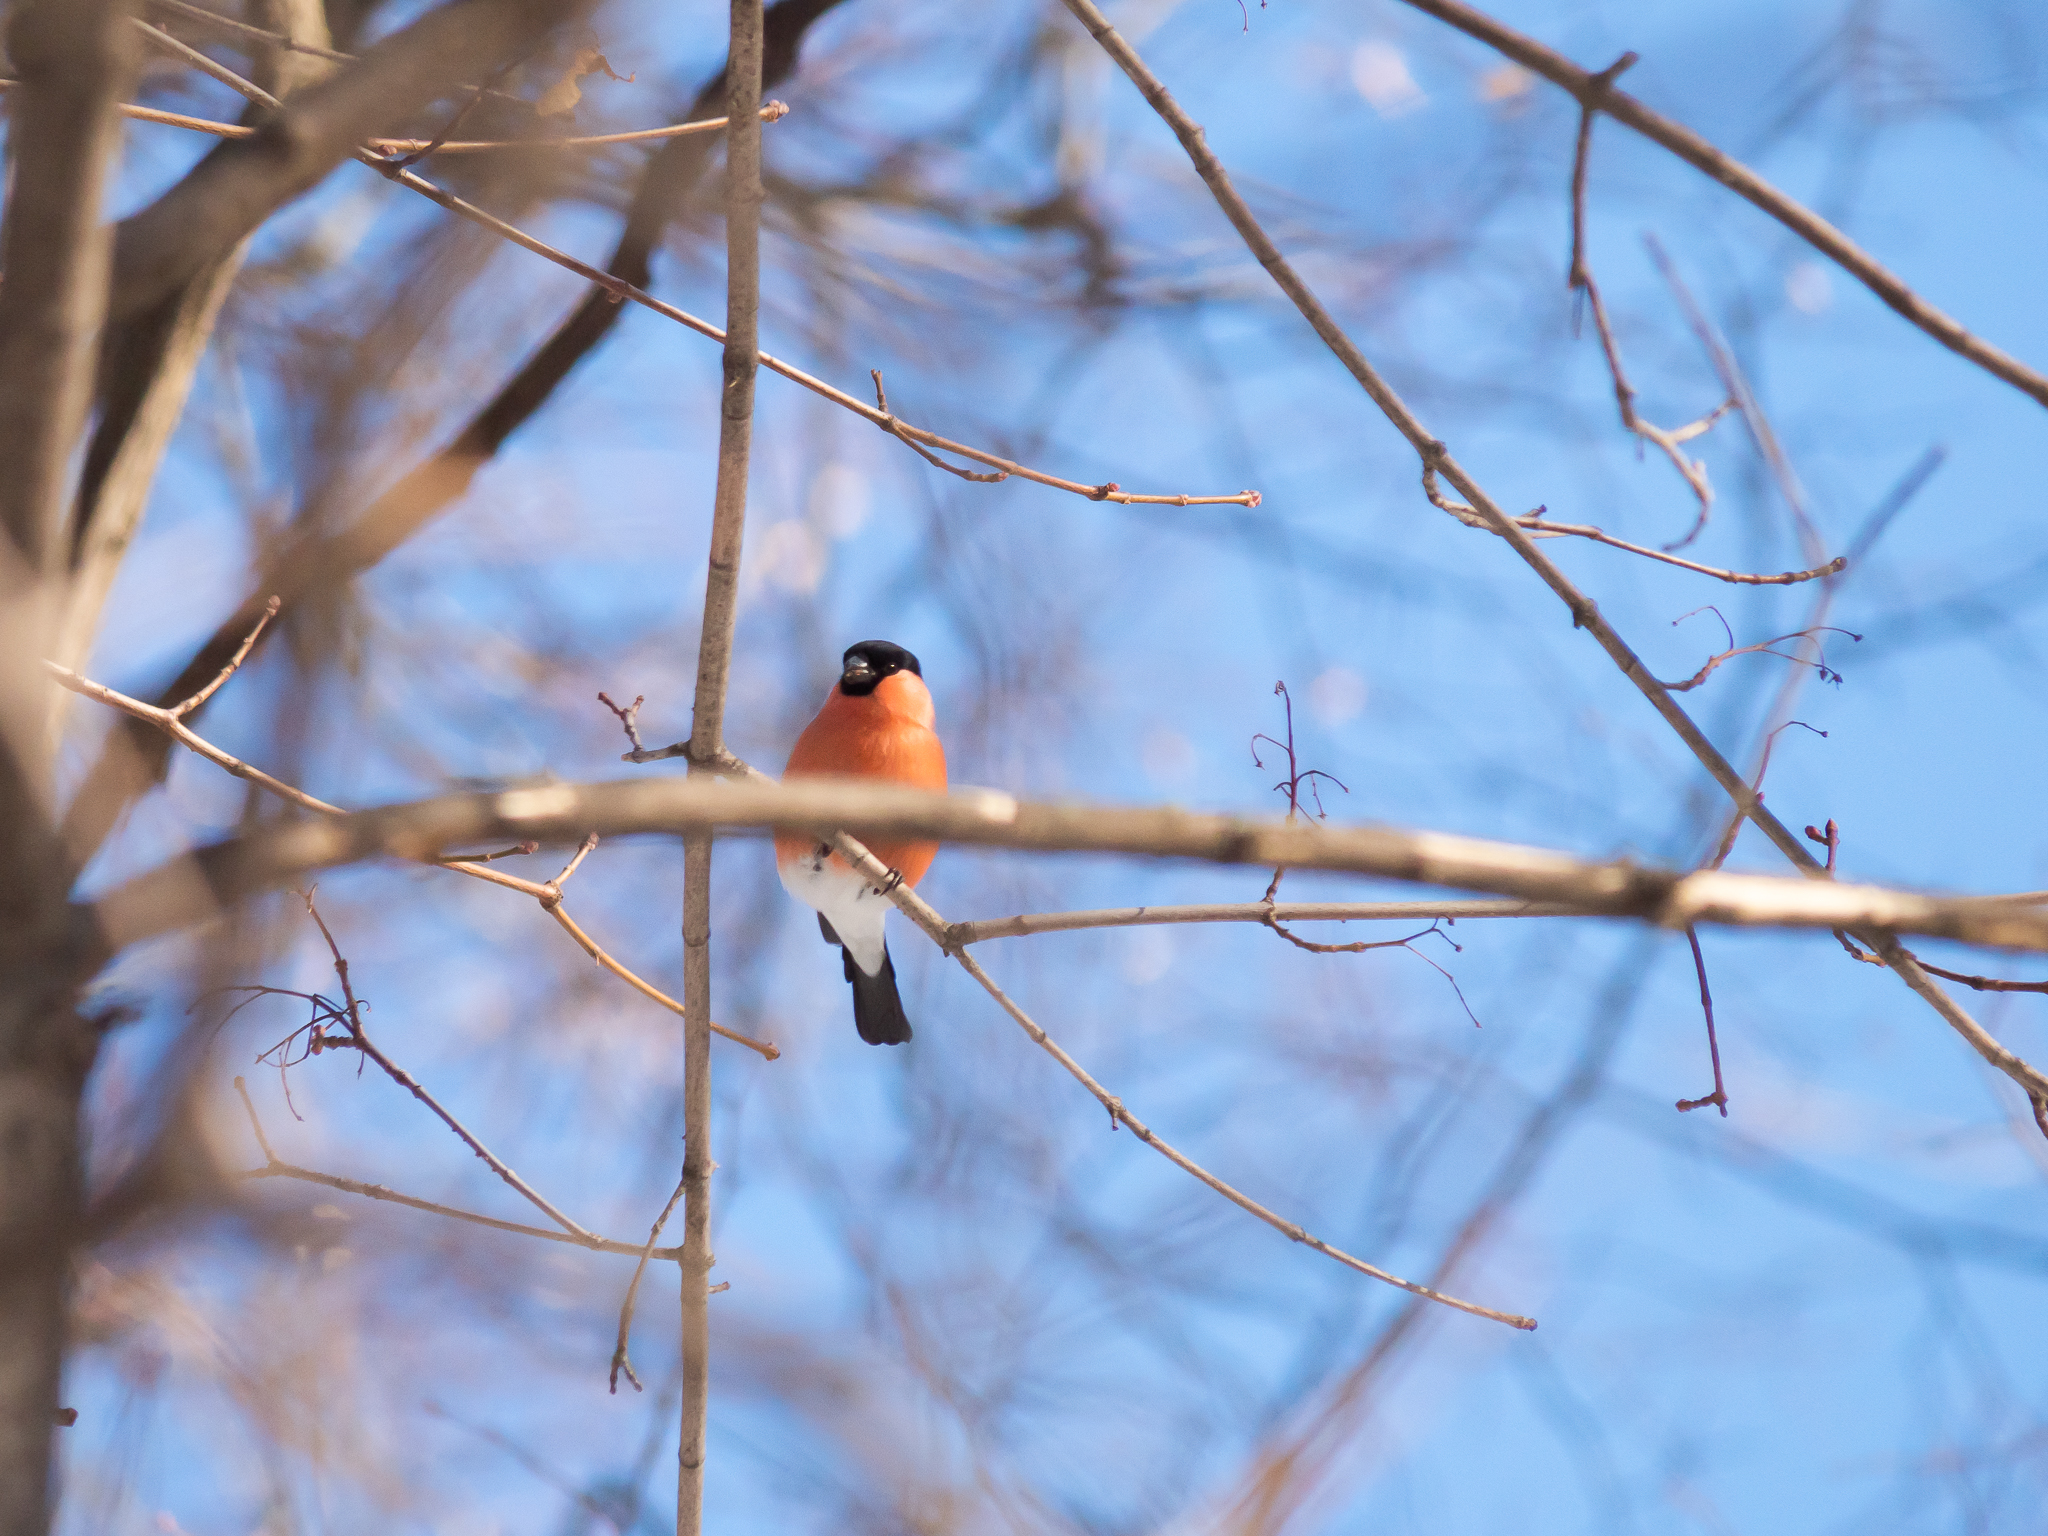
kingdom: Animalia
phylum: Chordata
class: Aves
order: Passeriformes
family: Fringillidae
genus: Pyrrhula
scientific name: Pyrrhula pyrrhula
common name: Eurasian bullfinch
